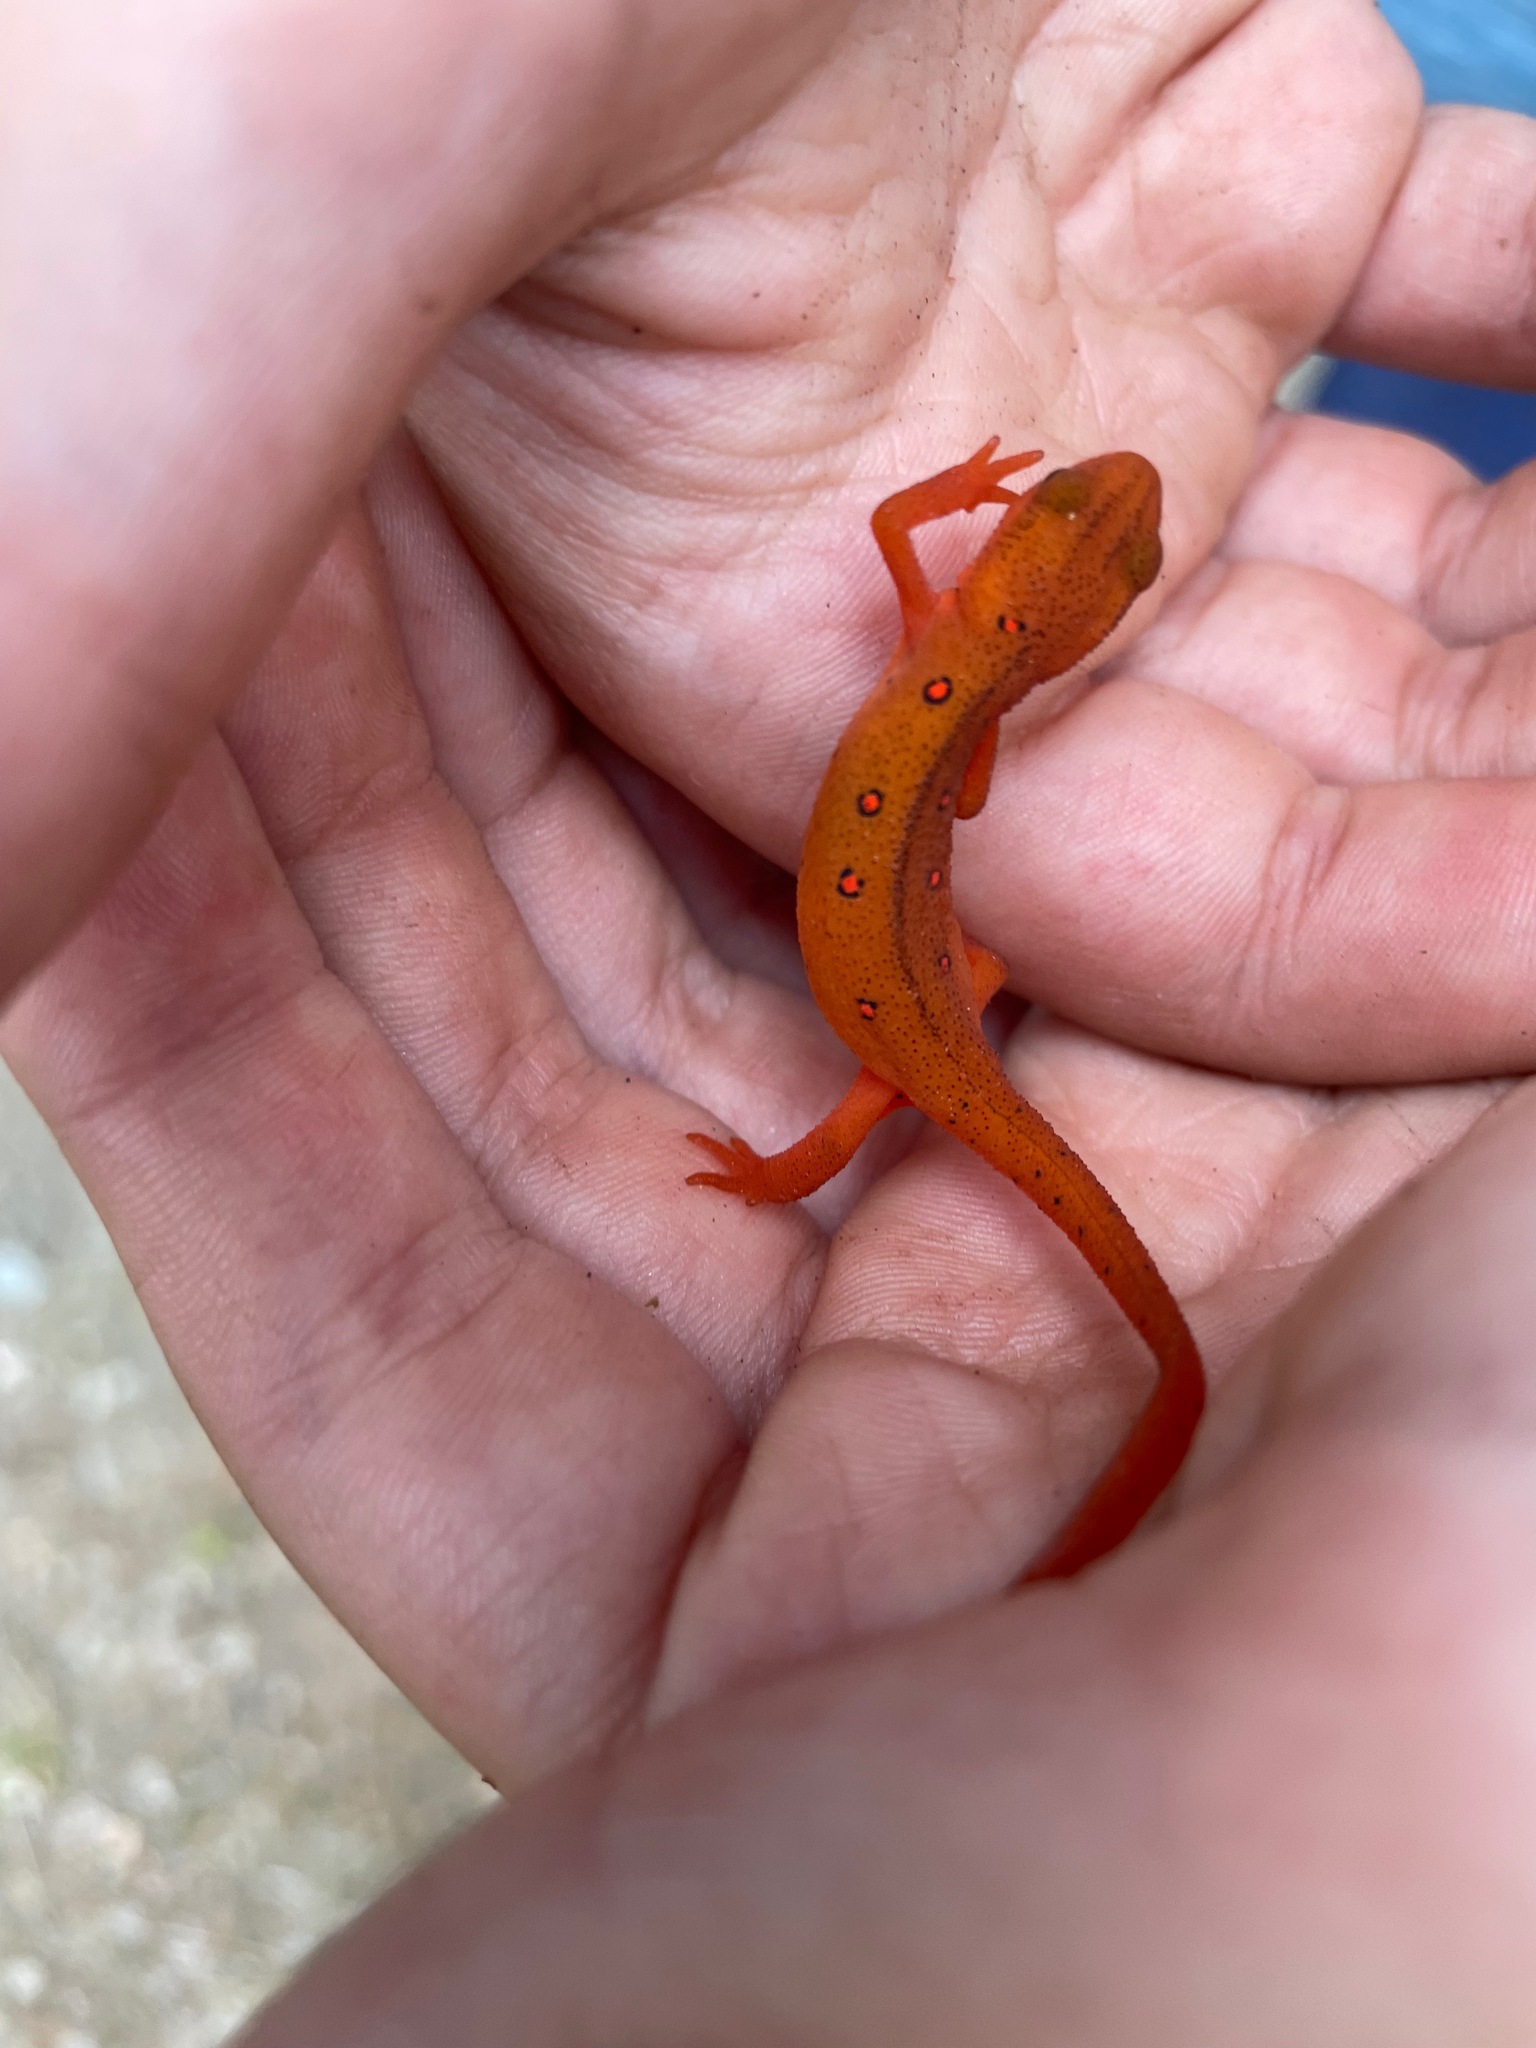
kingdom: Animalia
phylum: Chordata
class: Amphibia
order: Caudata
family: Salamandridae
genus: Notophthalmus
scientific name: Notophthalmus viridescens
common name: Eastern newt
